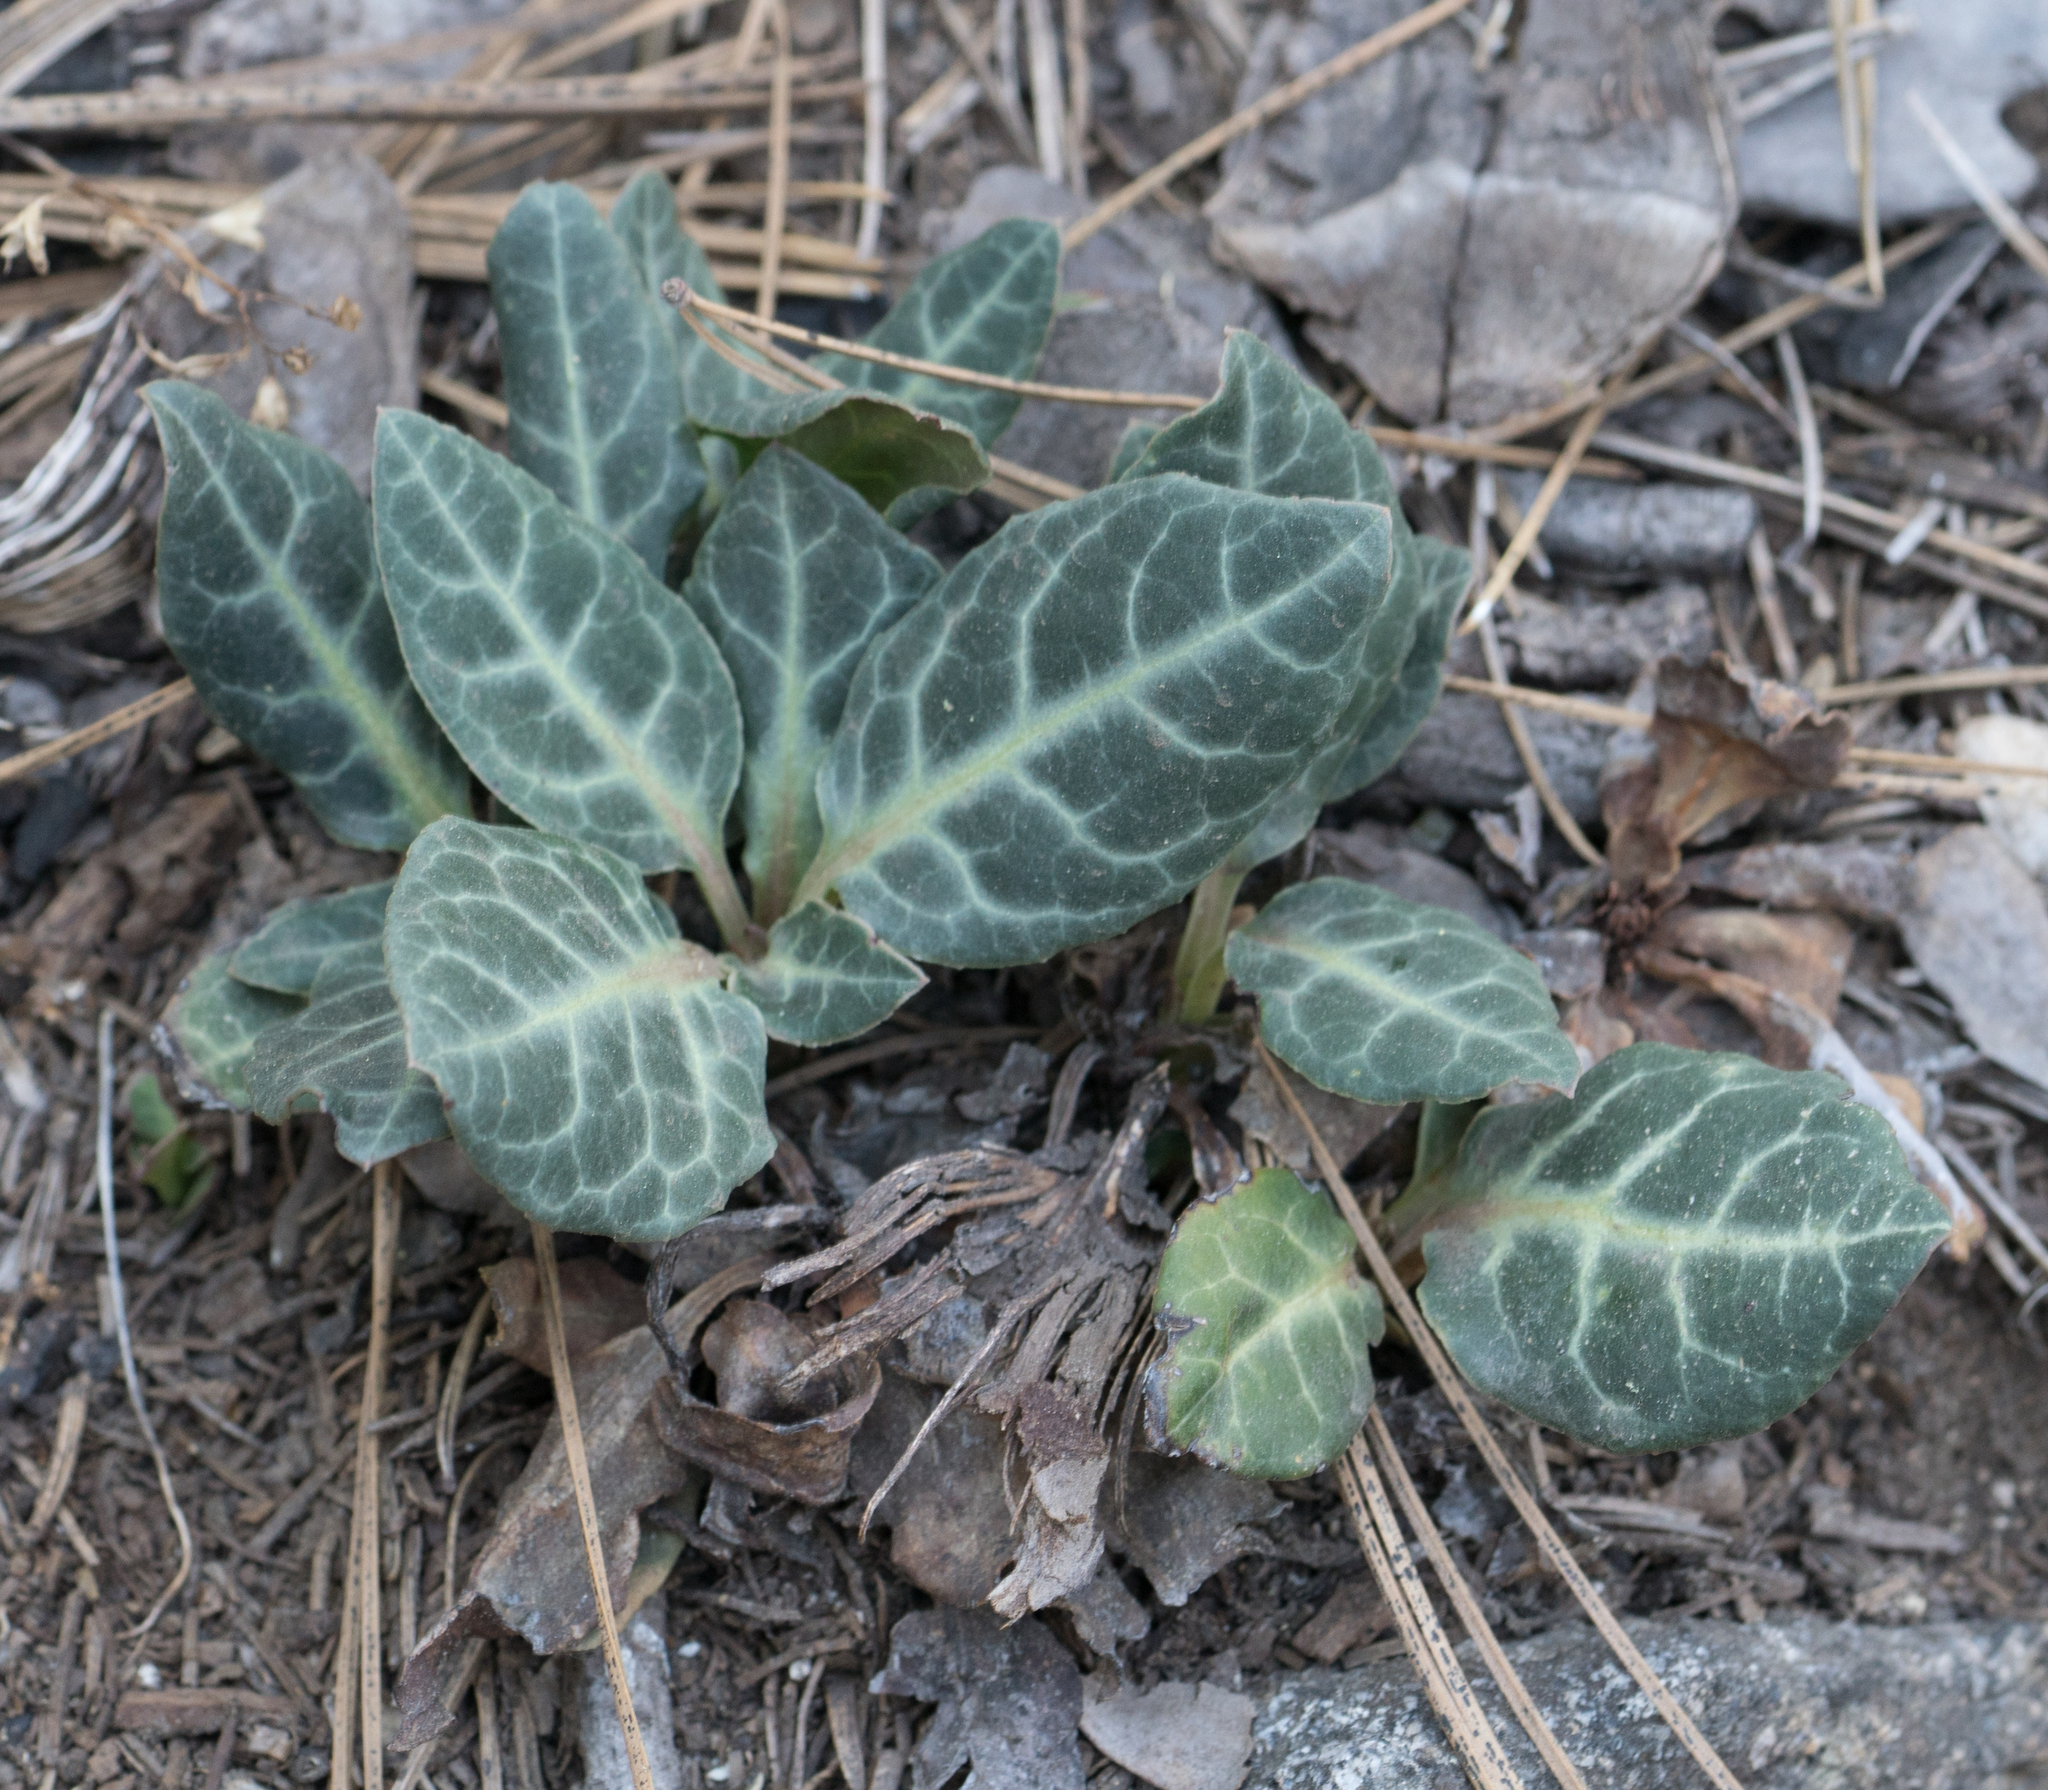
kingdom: Plantae
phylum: Tracheophyta
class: Magnoliopsida
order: Ericales
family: Ericaceae
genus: Pyrola
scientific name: Pyrola picta
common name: White-vein wintergreen
